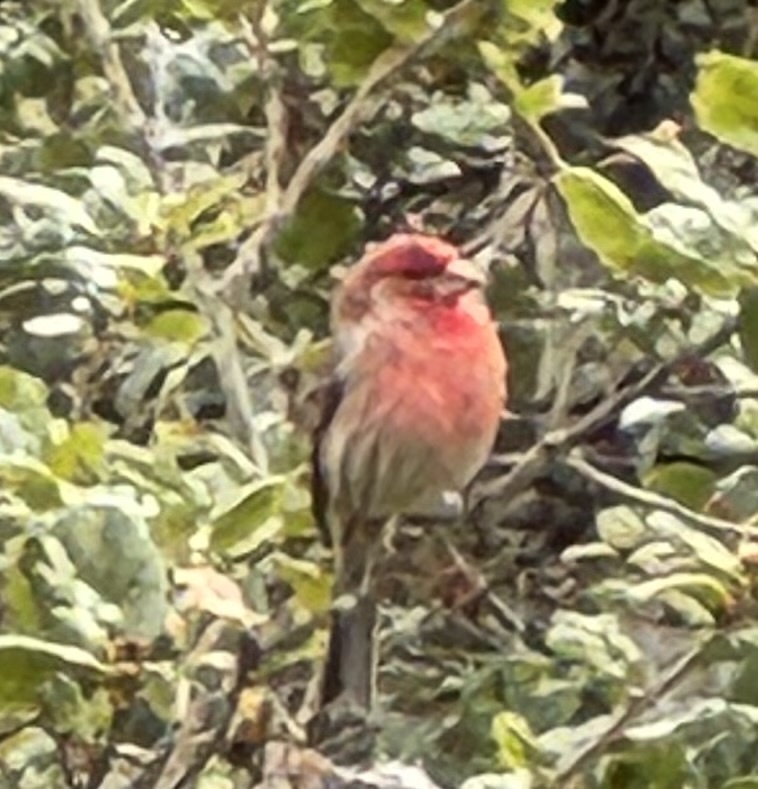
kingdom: Animalia
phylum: Chordata
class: Aves
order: Passeriformes
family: Fringillidae
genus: Haemorhous
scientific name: Haemorhous mexicanus
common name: House finch
